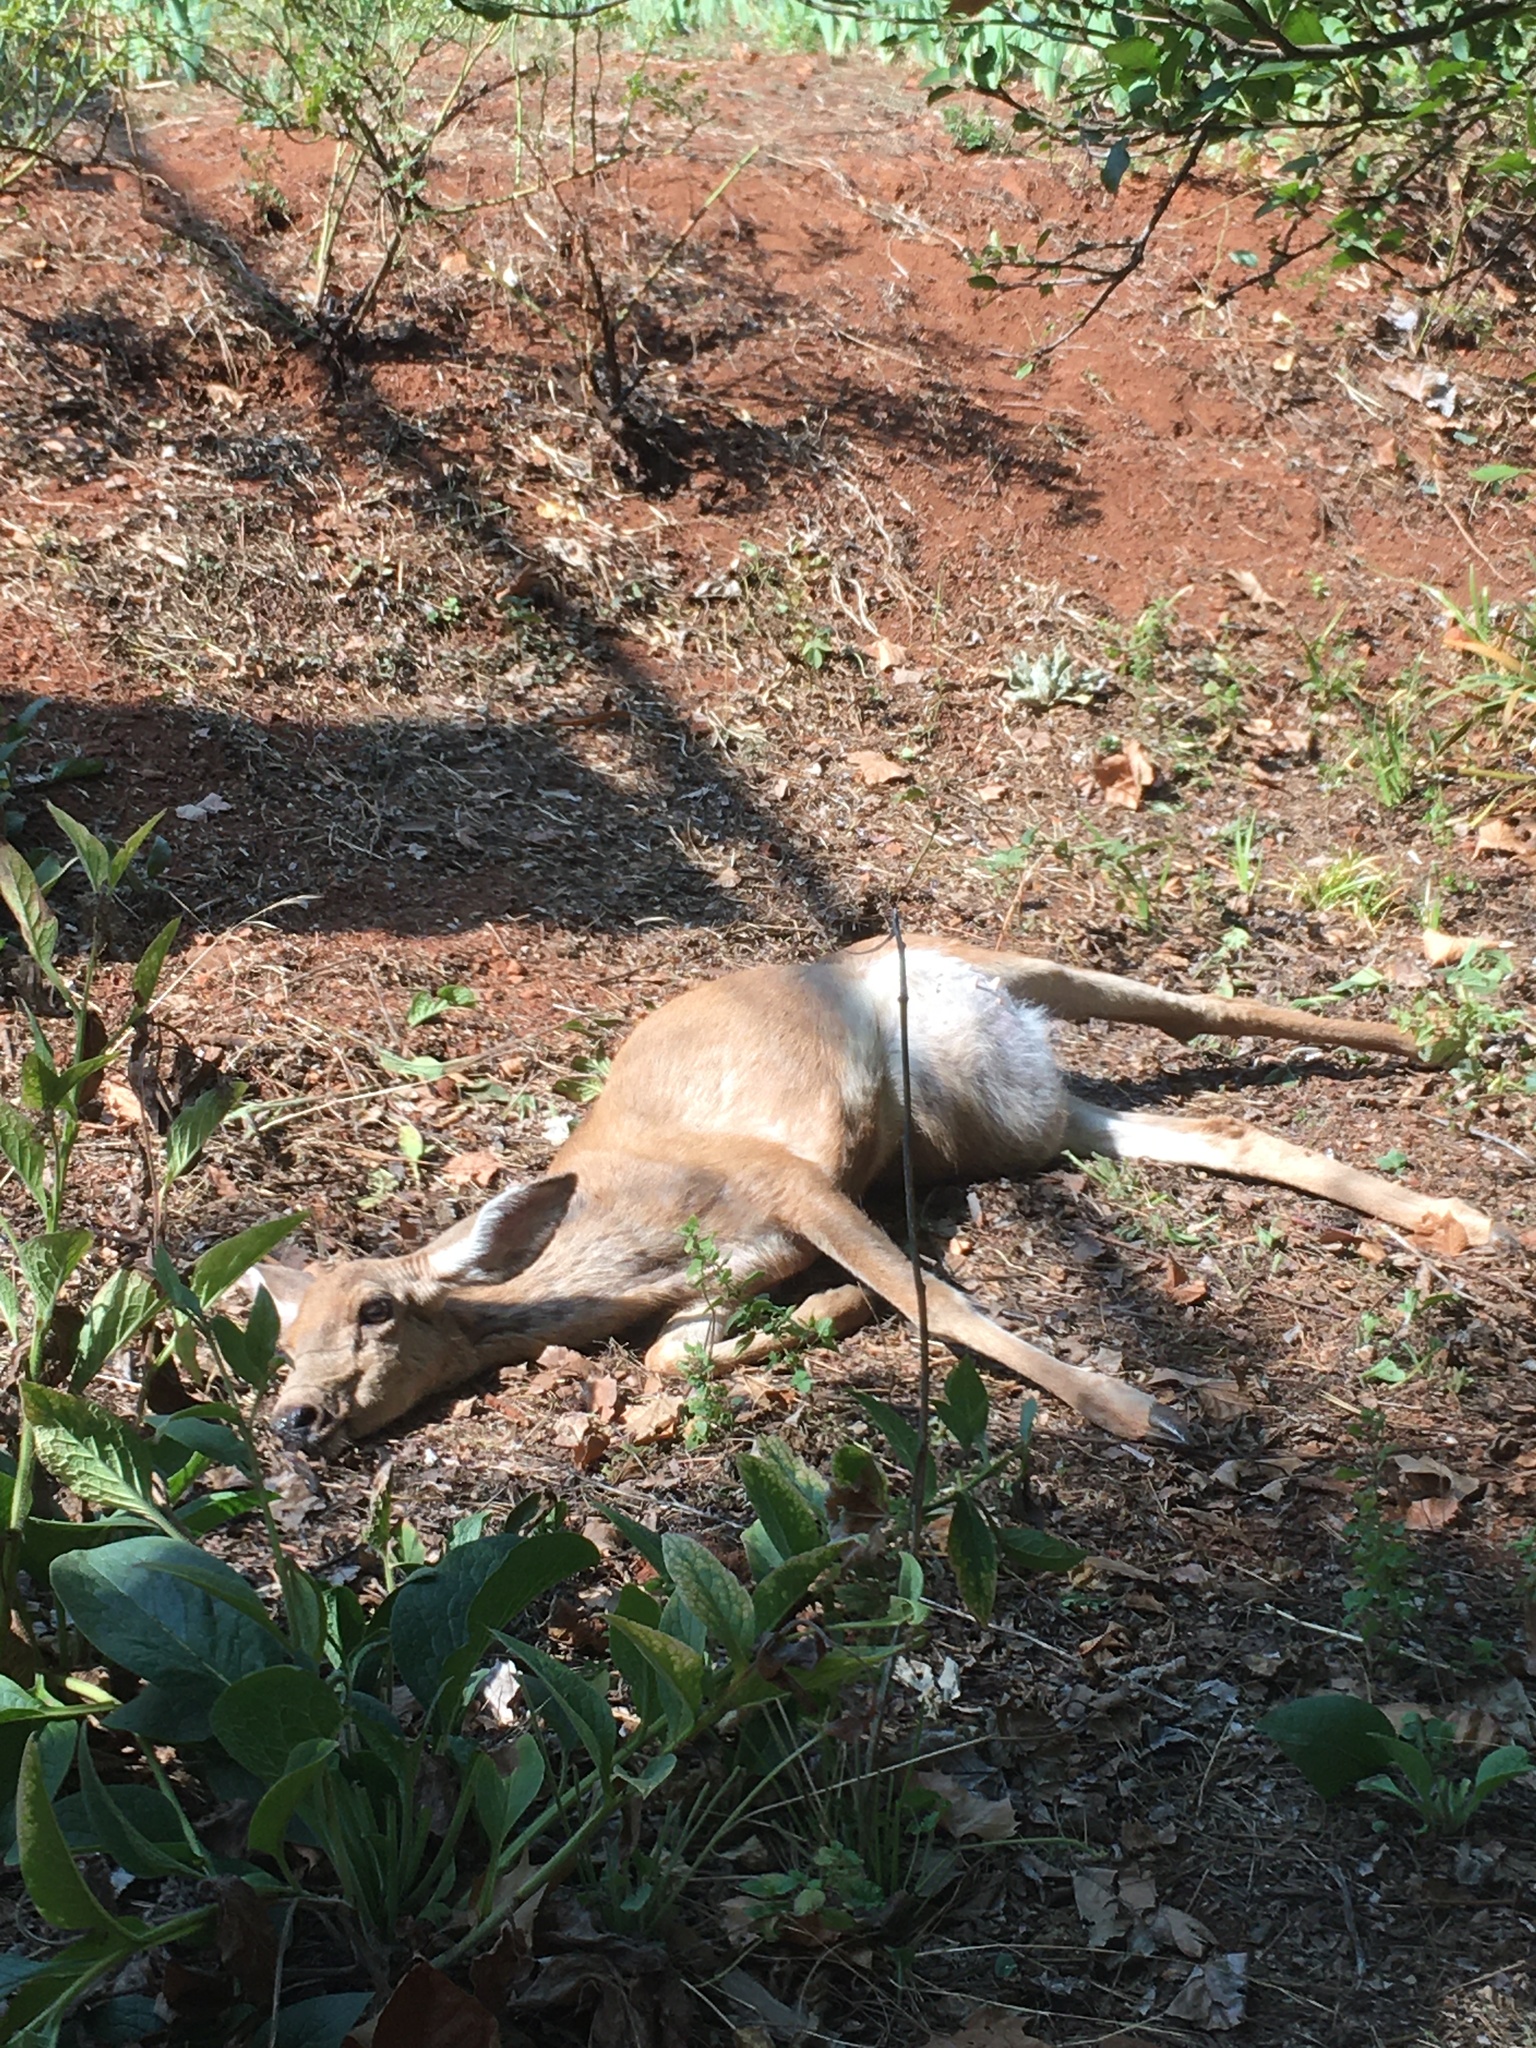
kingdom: Animalia
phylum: Chordata
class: Mammalia
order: Artiodactyla
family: Cervidae
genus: Odocoileus
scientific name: Odocoileus hemionus
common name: Mule deer
